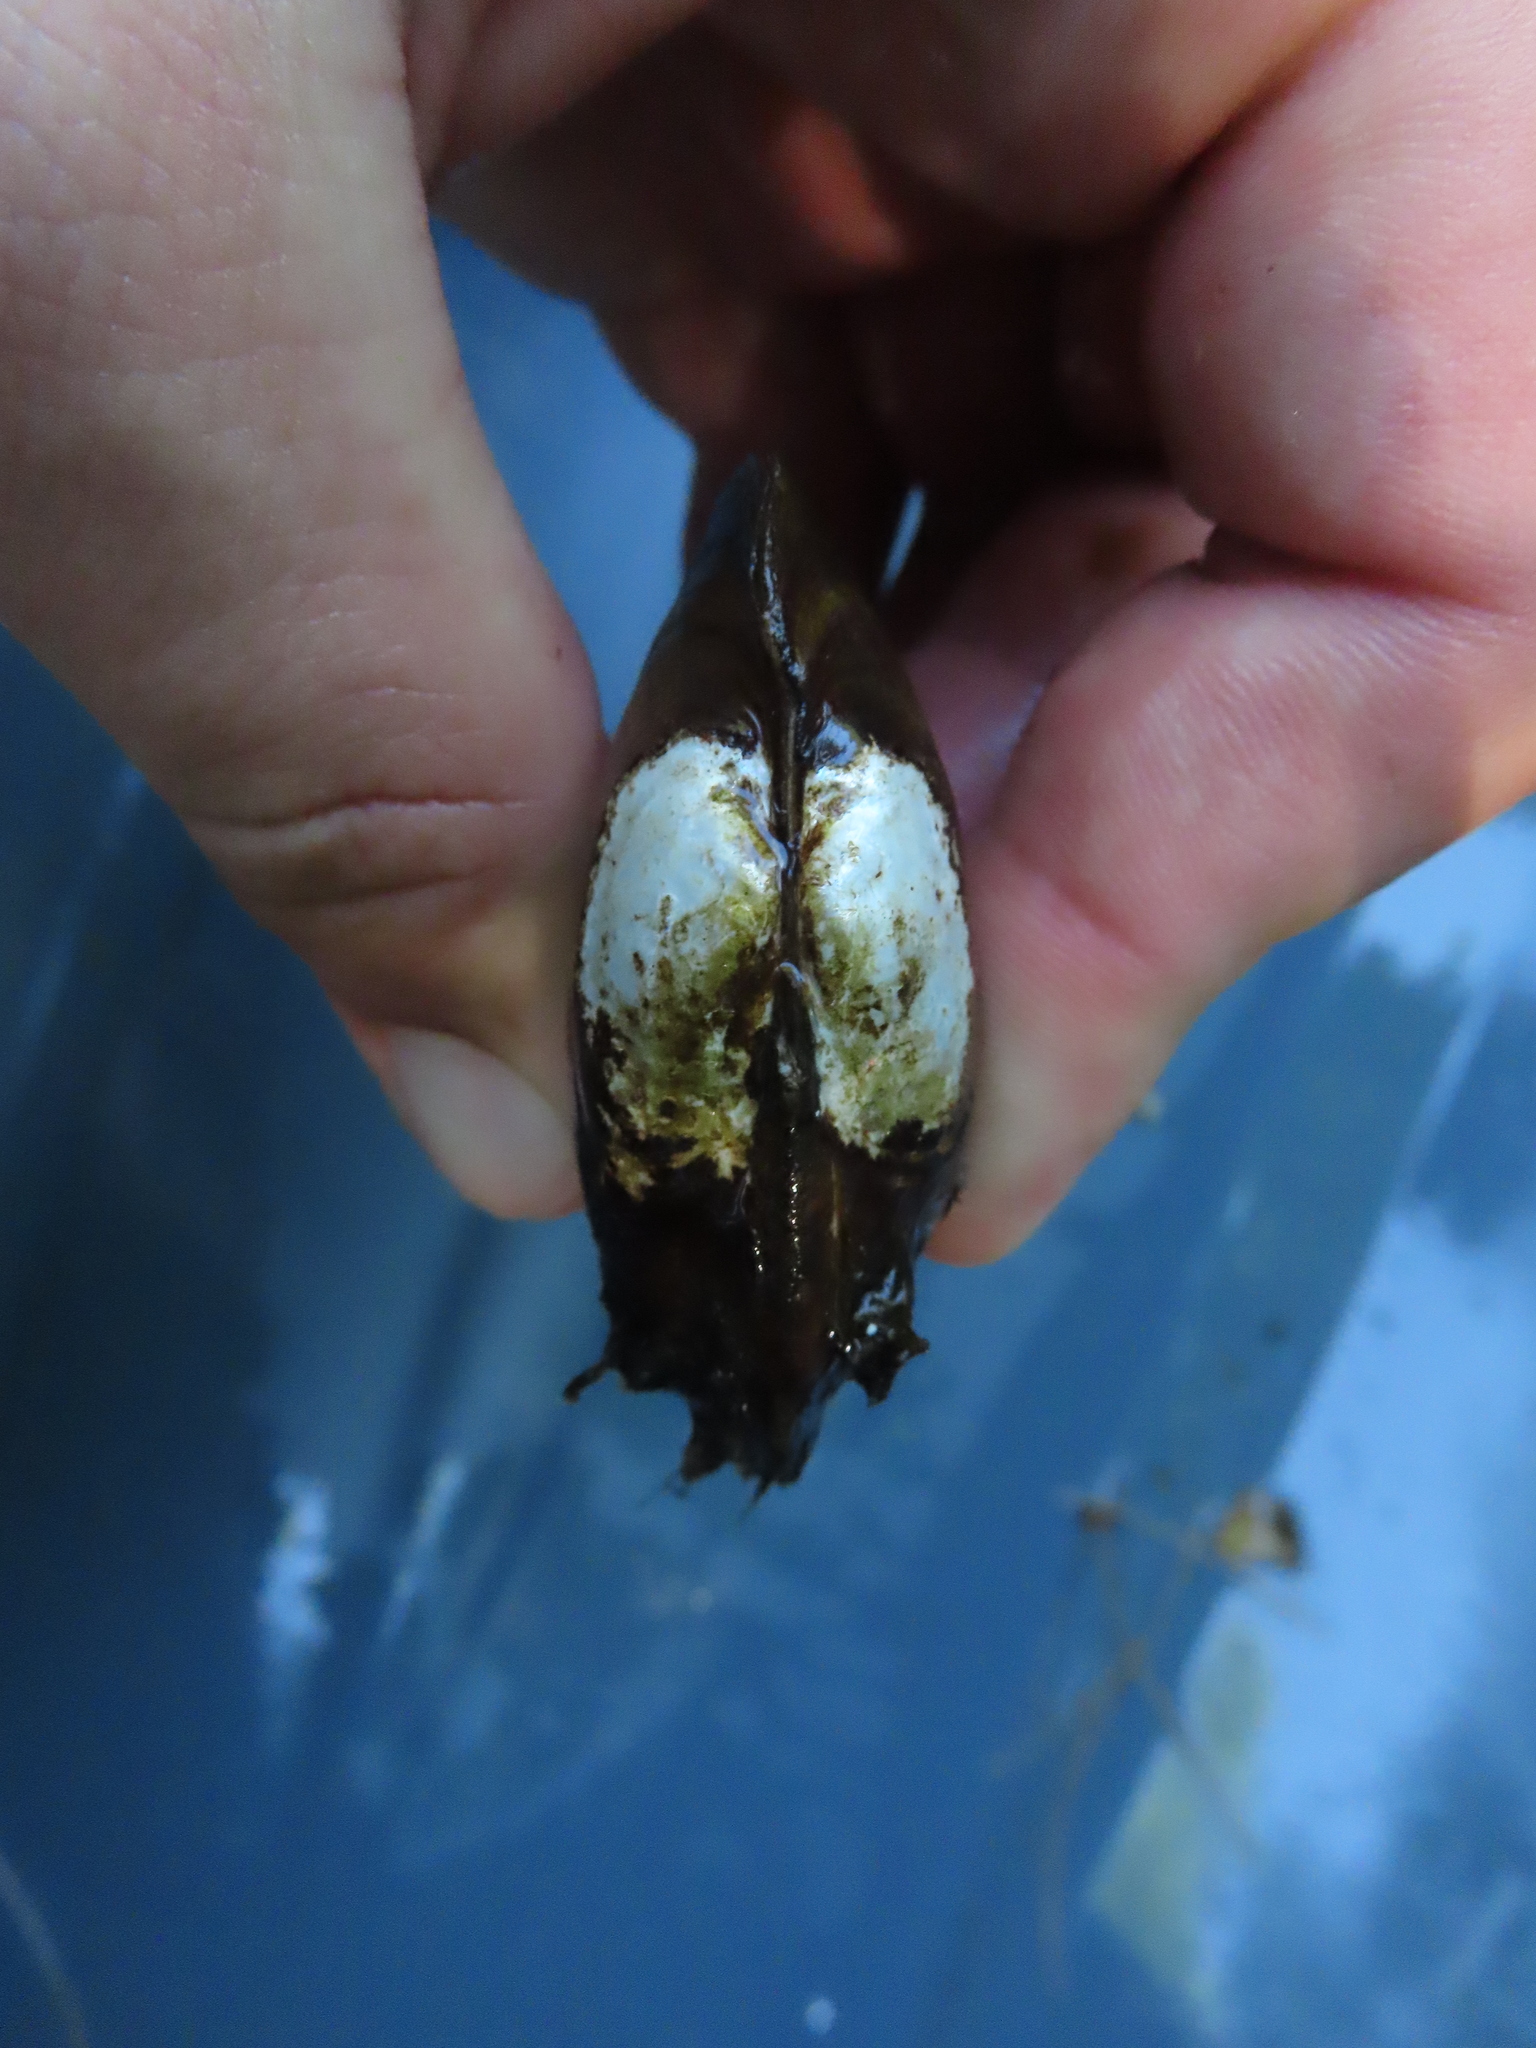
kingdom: Animalia
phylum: Mollusca
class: Bivalvia
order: Unionida
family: Unionidae
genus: Lampsilis
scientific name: Lampsilis siliquoidea
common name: Fatmucket
